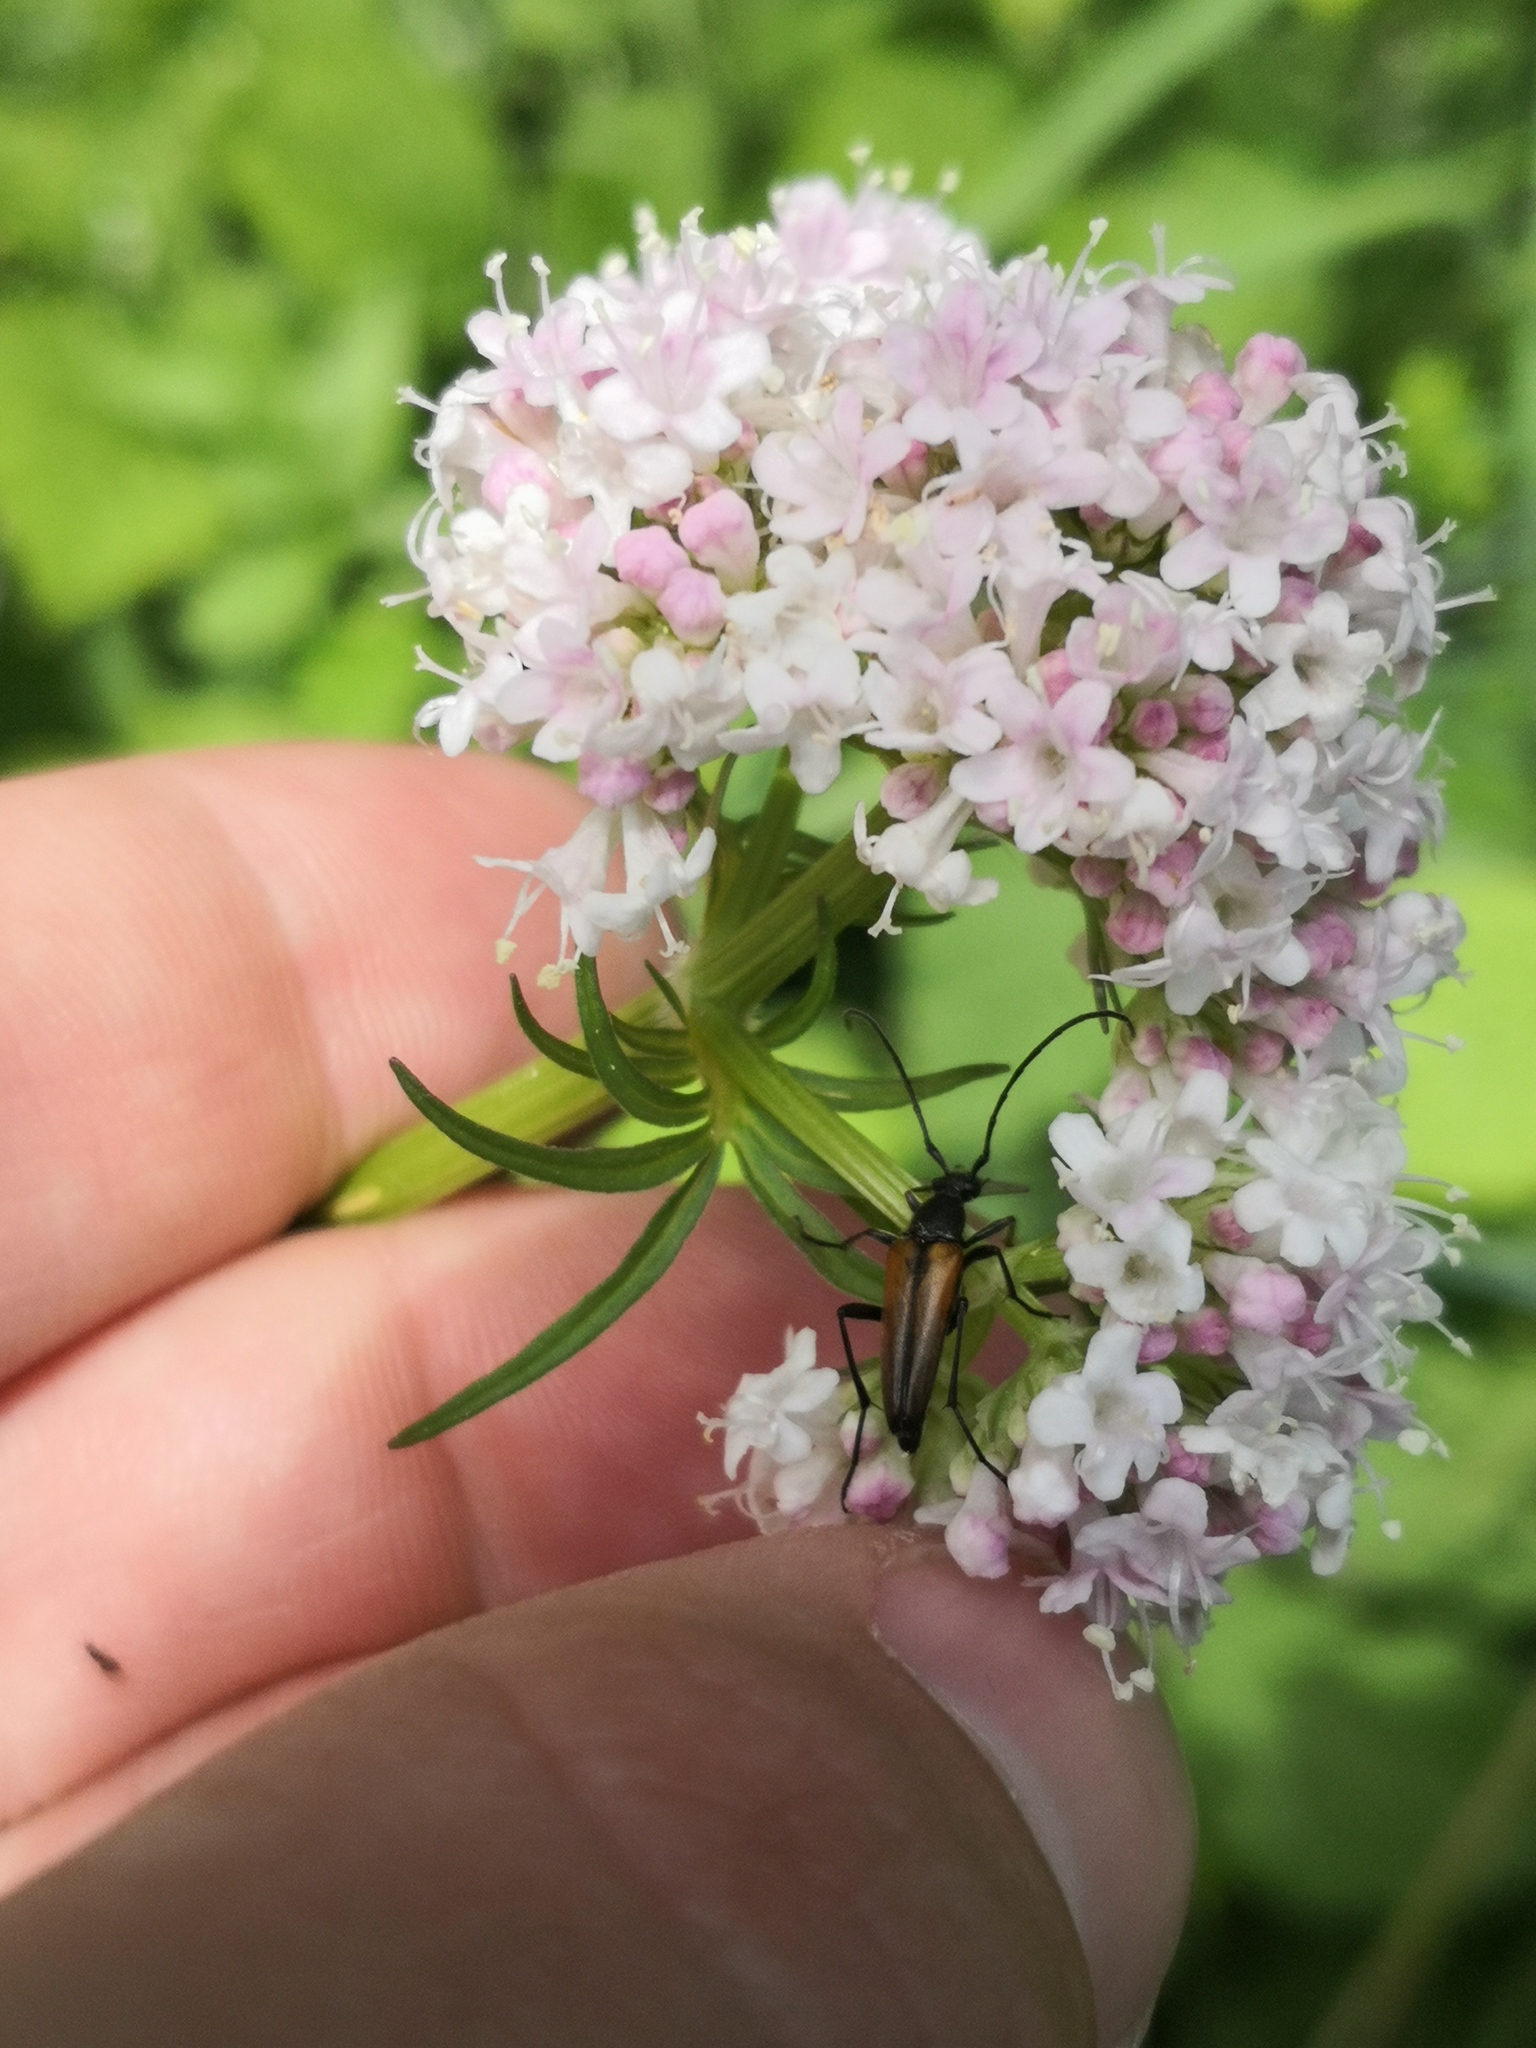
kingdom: Animalia
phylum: Arthropoda
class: Insecta
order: Coleoptera
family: Cerambycidae
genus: Stenurella
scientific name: Stenurella melanura
